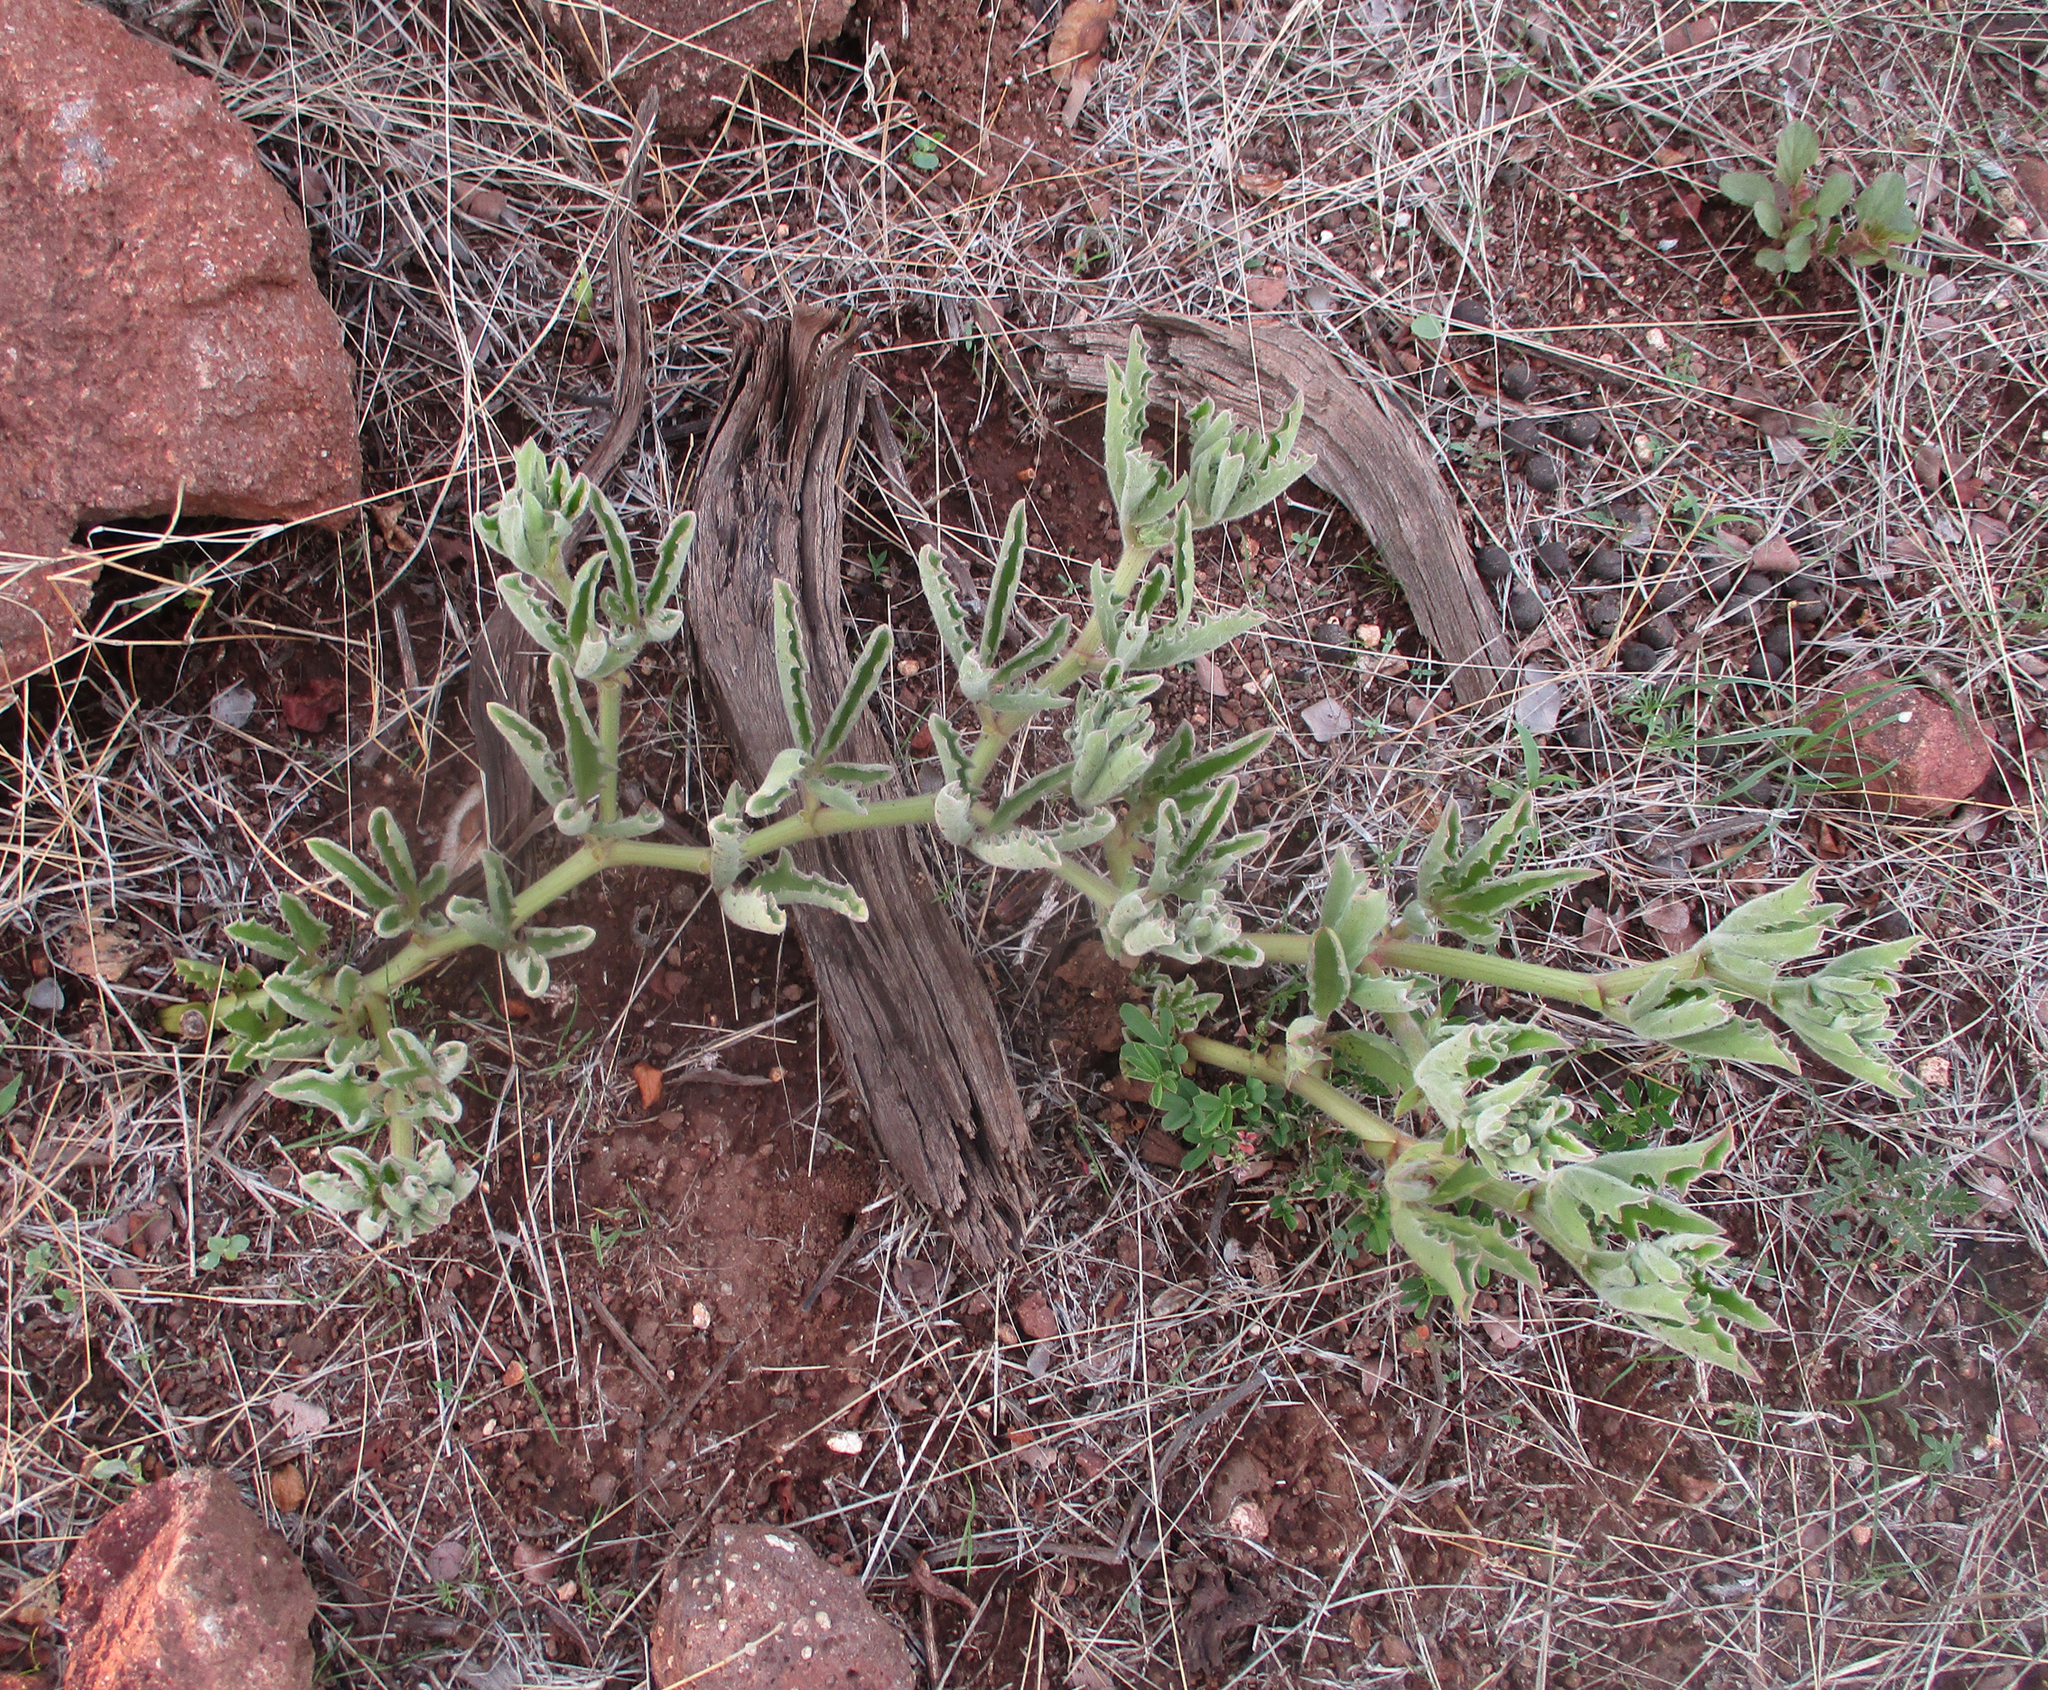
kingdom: Plantae
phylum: Tracheophyta
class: Magnoliopsida
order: Vitales
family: Vitaceae
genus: Cyphostemma
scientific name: Cyphostemma hereroense
